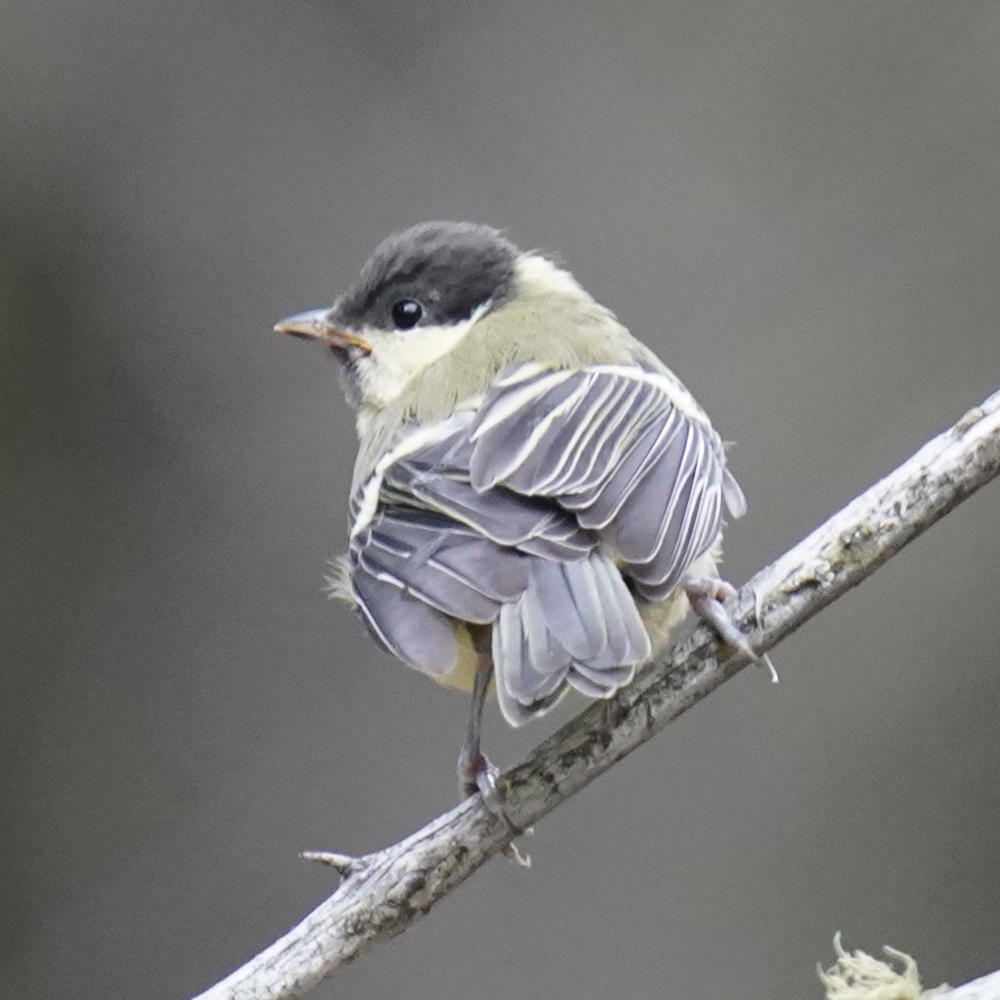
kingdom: Animalia
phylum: Chordata
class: Aves
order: Passeriformes
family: Paridae
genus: Parus
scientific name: Parus major
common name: Great tit
